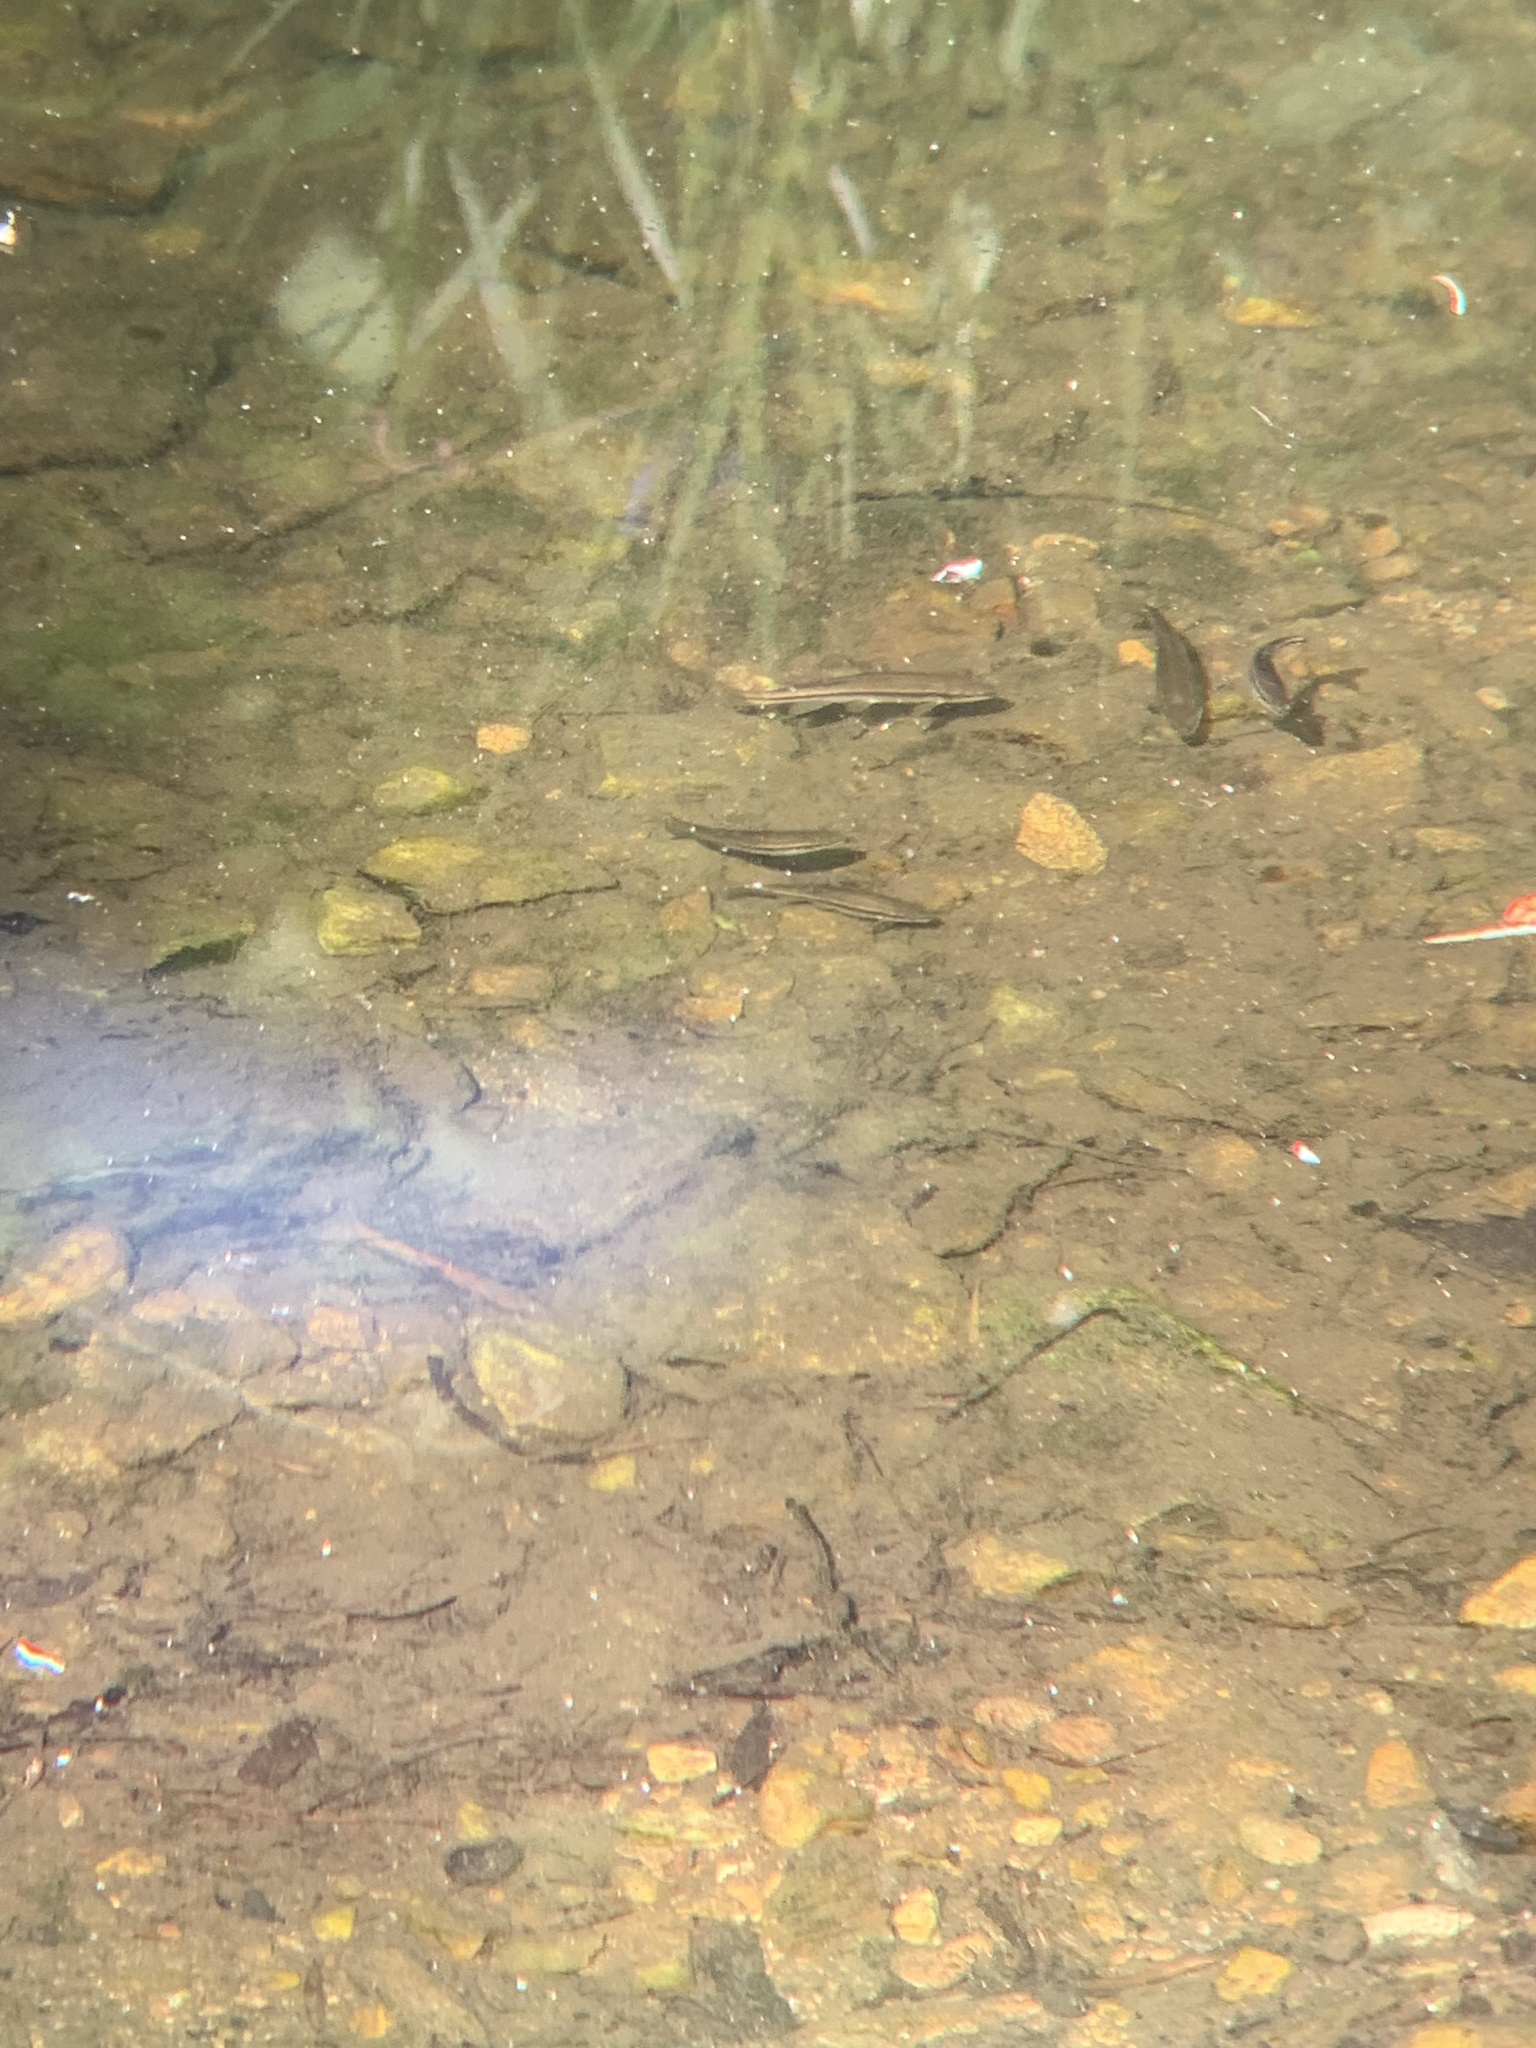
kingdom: Animalia
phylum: Chordata
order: Cypriniformes
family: Cyprinidae
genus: Rhinichthys
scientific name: Rhinichthys atratulus
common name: Eastern blacknose dace
